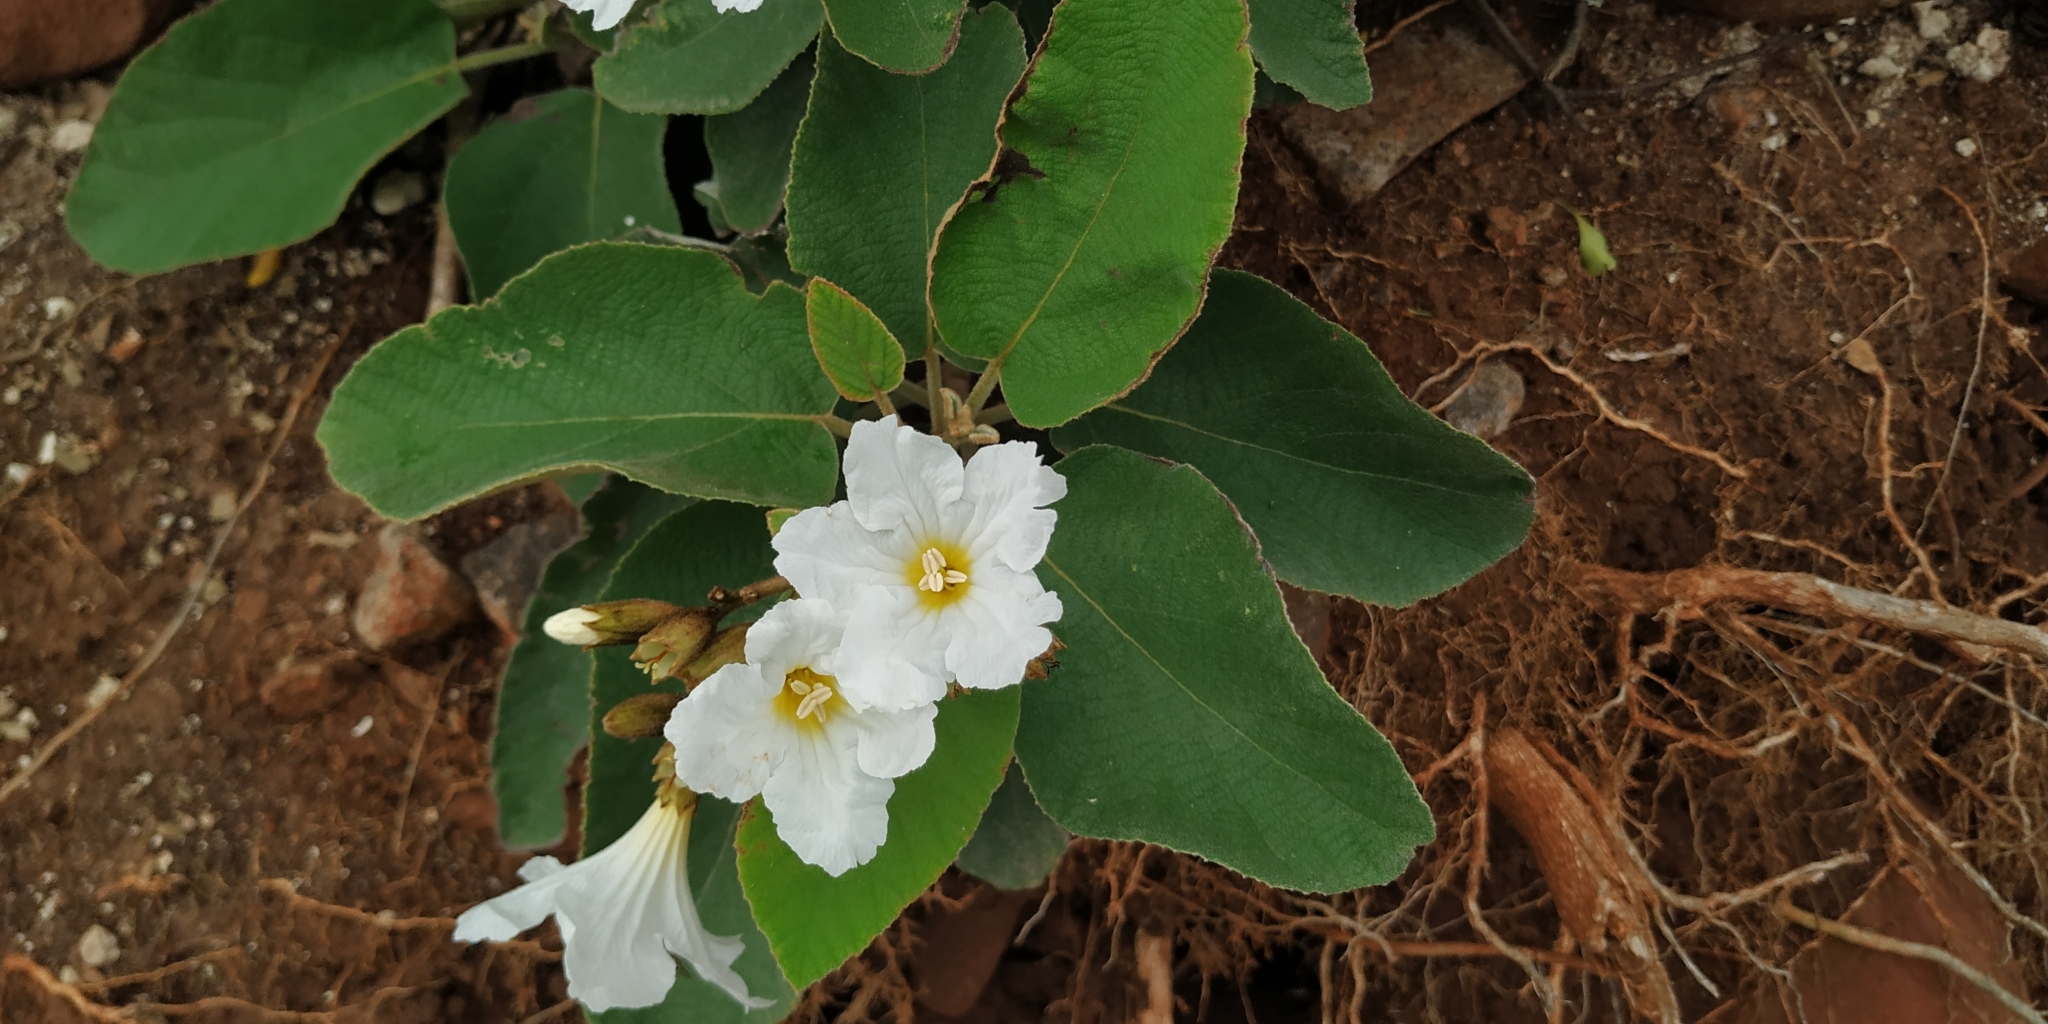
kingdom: Plantae
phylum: Tracheophyta
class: Magnoliopsida
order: Boraginales
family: Cordiaceae
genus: Cordia
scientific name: Cordia boissieri
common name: Mexican-olive
